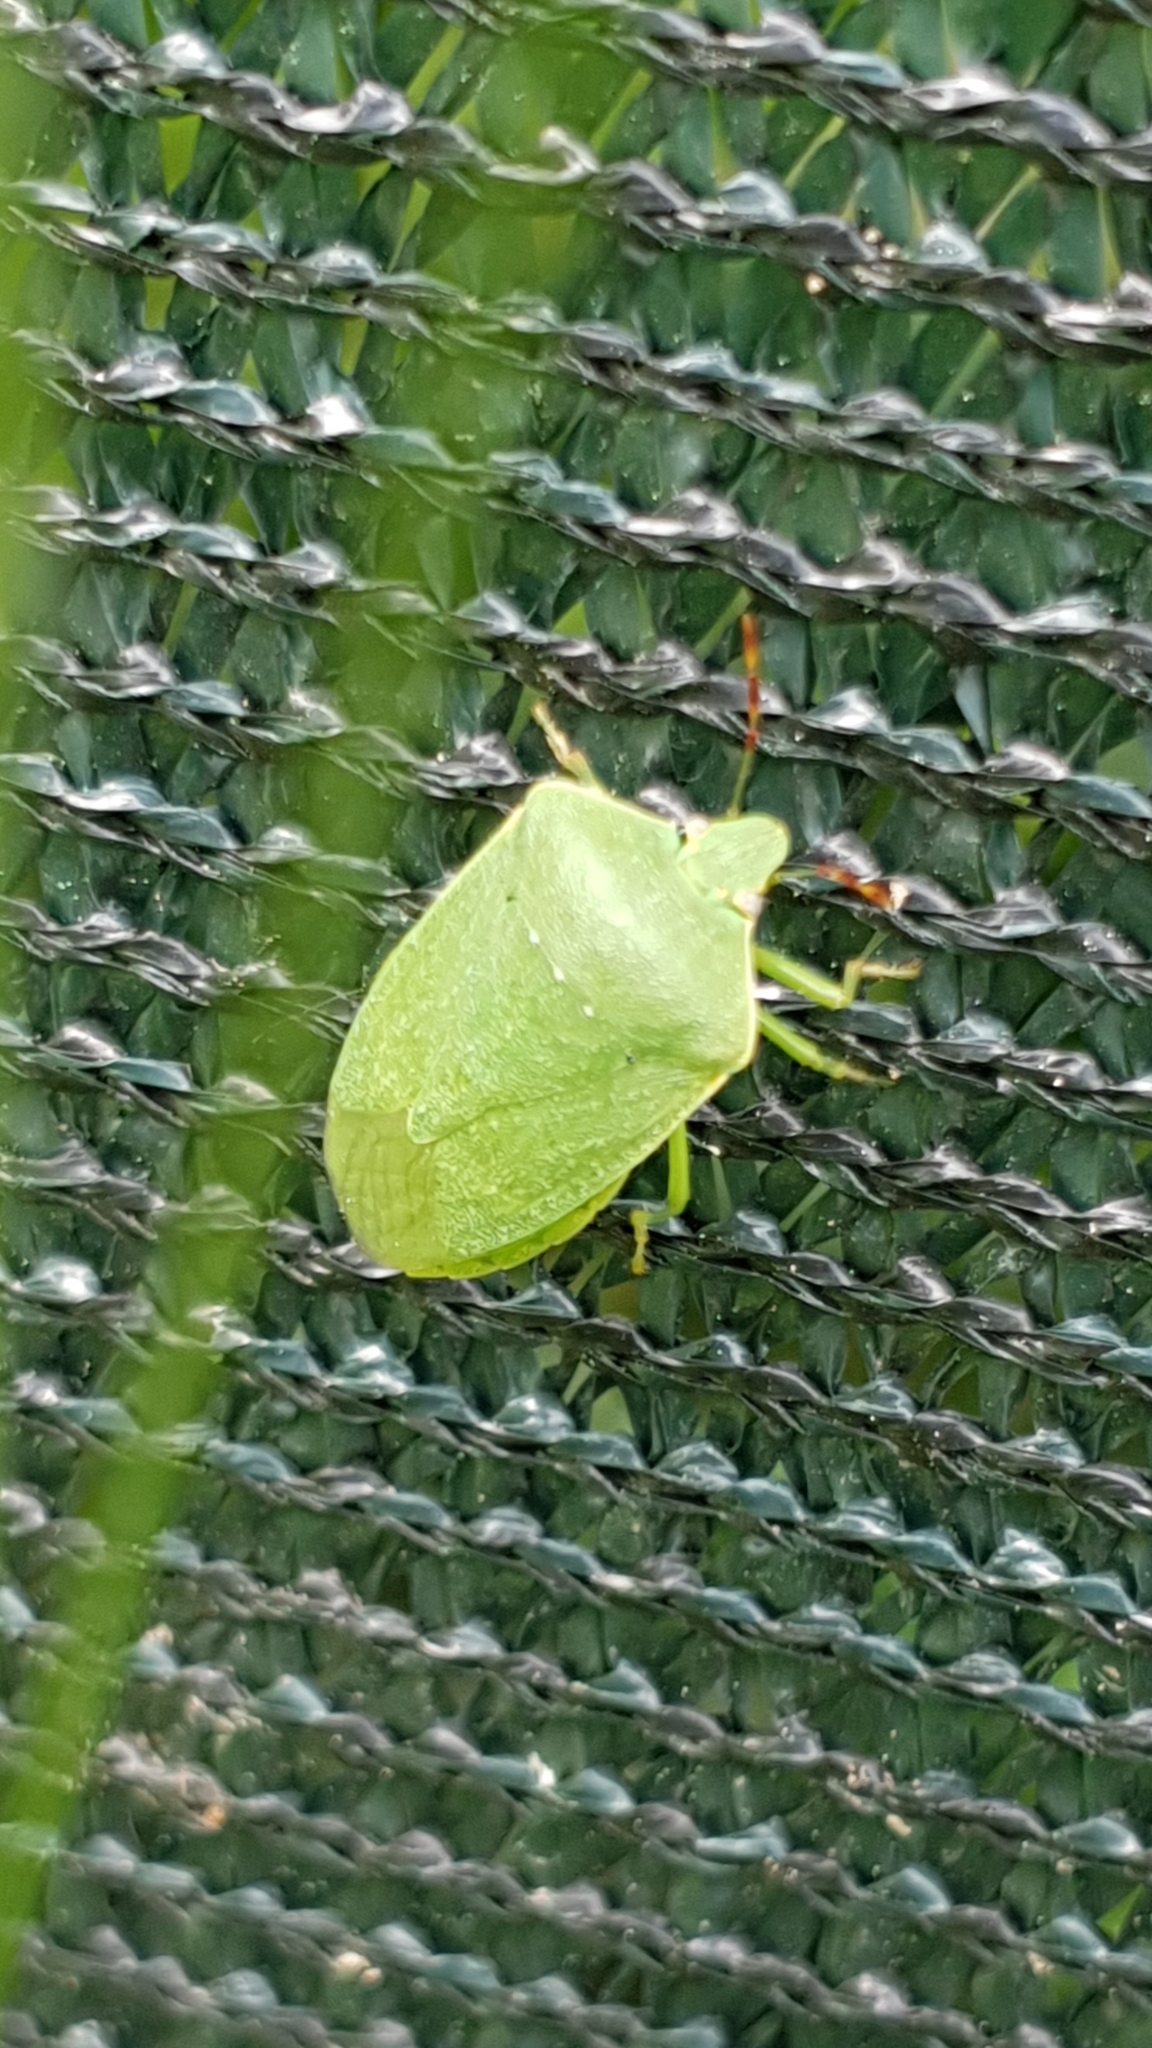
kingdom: Animalia
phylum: Arthropoda
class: Insecta
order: Hemiptera
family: Pentatomidae
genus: Nezara
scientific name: Nezara viridula
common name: Southern green stink bug
